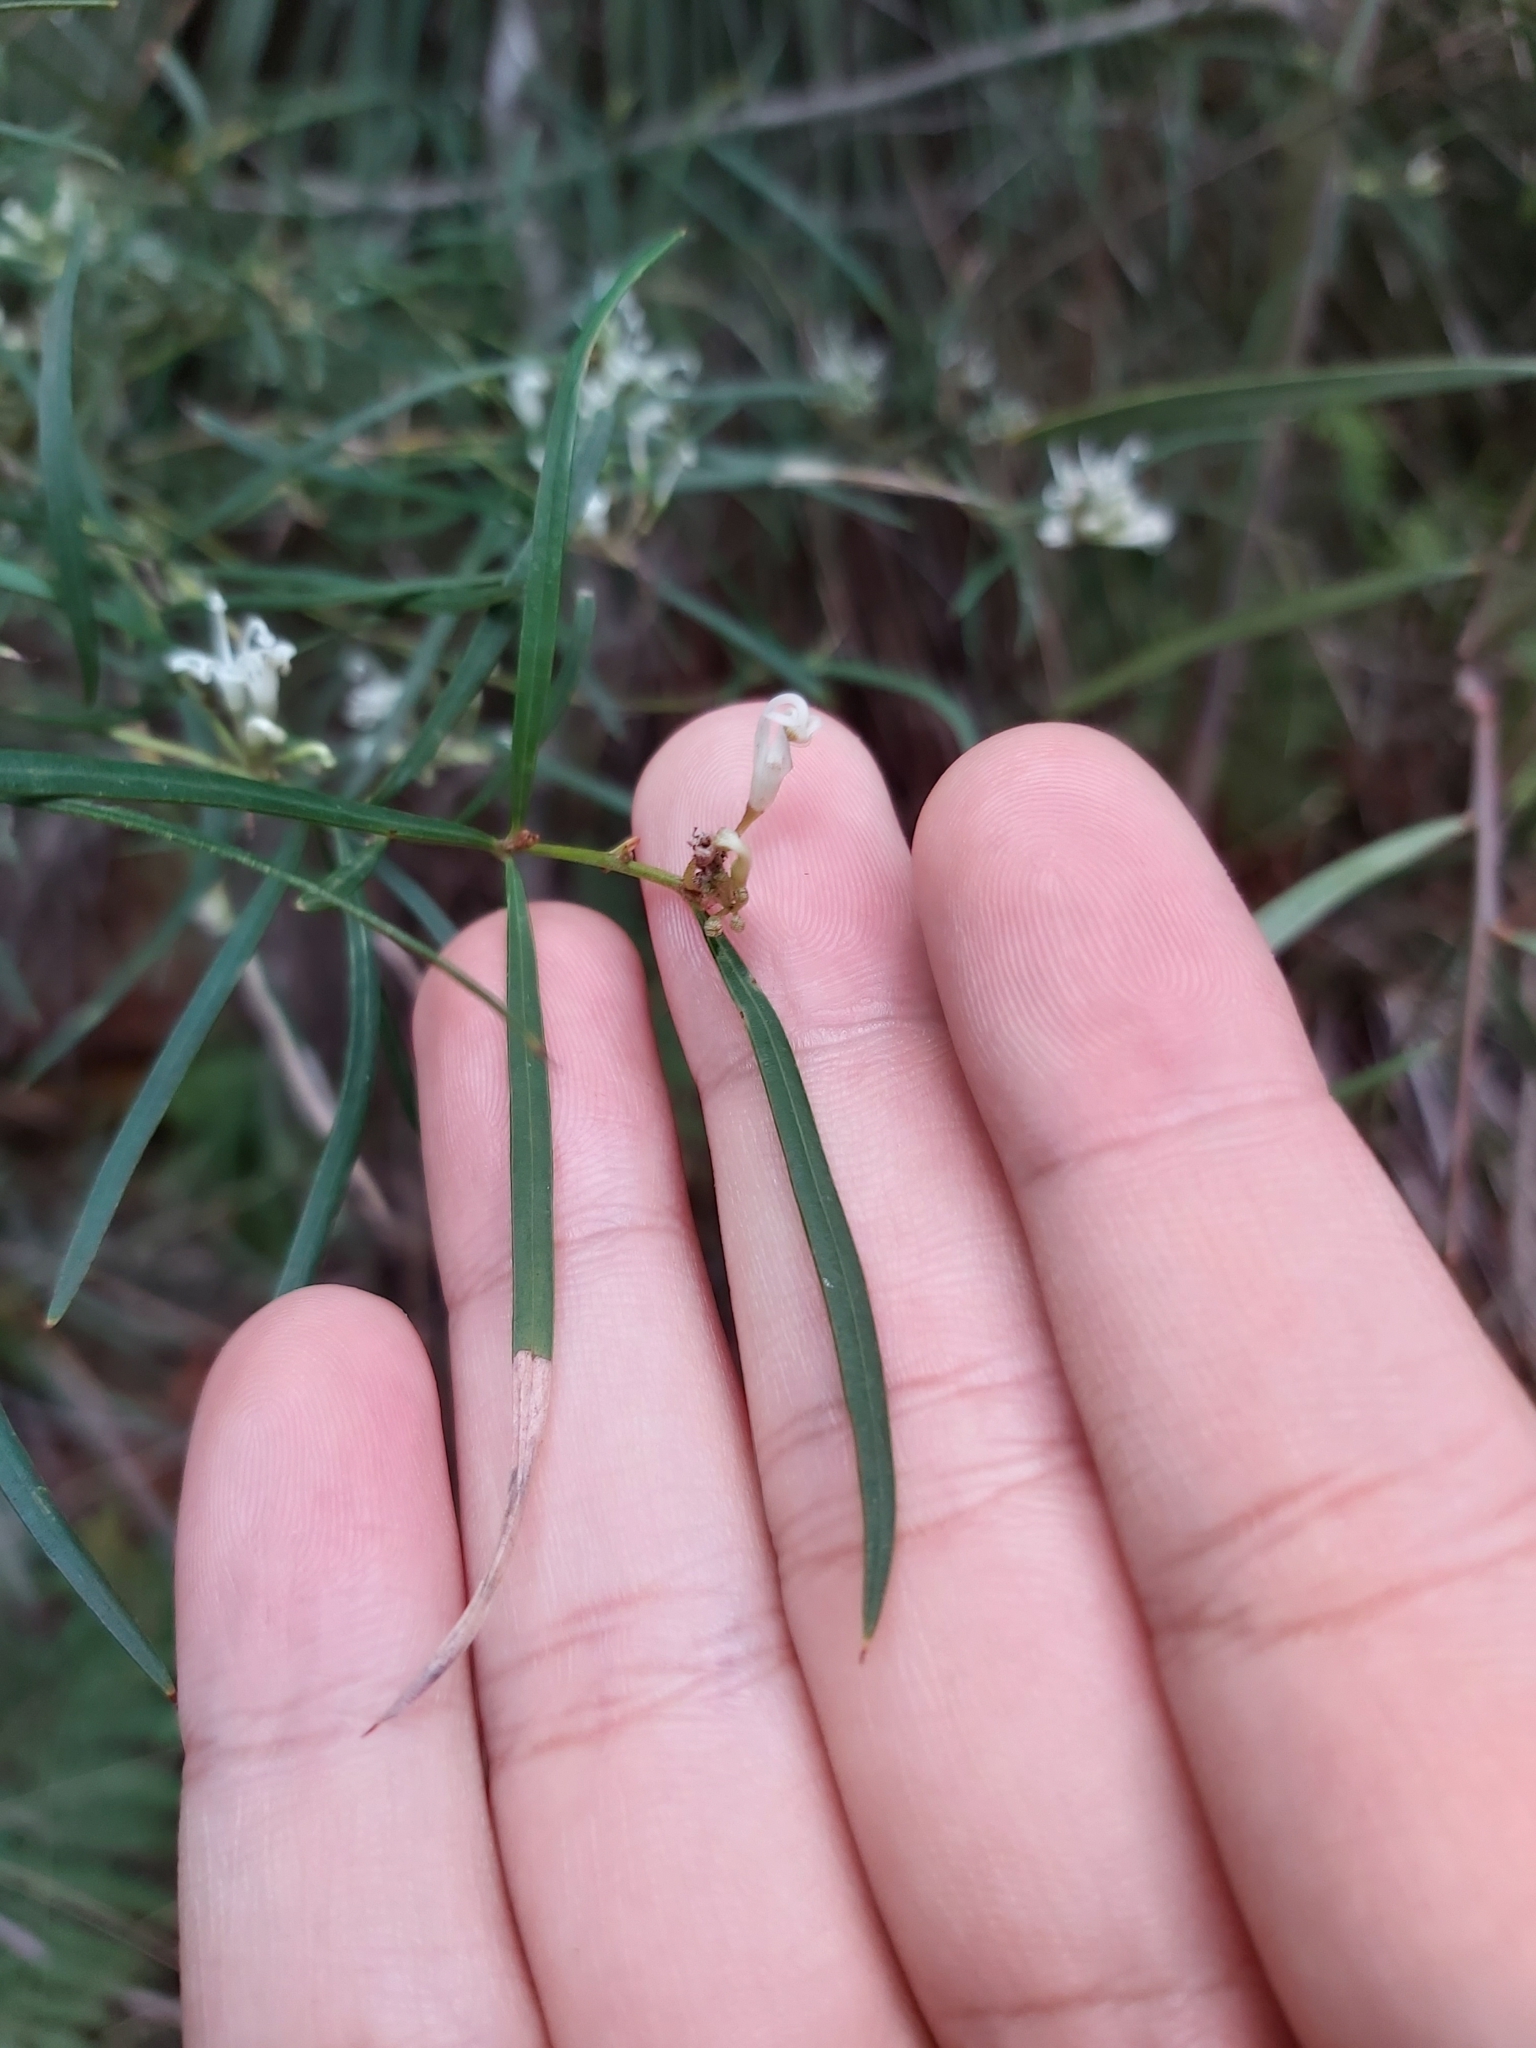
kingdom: Plantae
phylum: Tracheophyta
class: Magnoliopsida
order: Proteales
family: Proteaceae
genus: Grevillea
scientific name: Grevillea linearifolia
